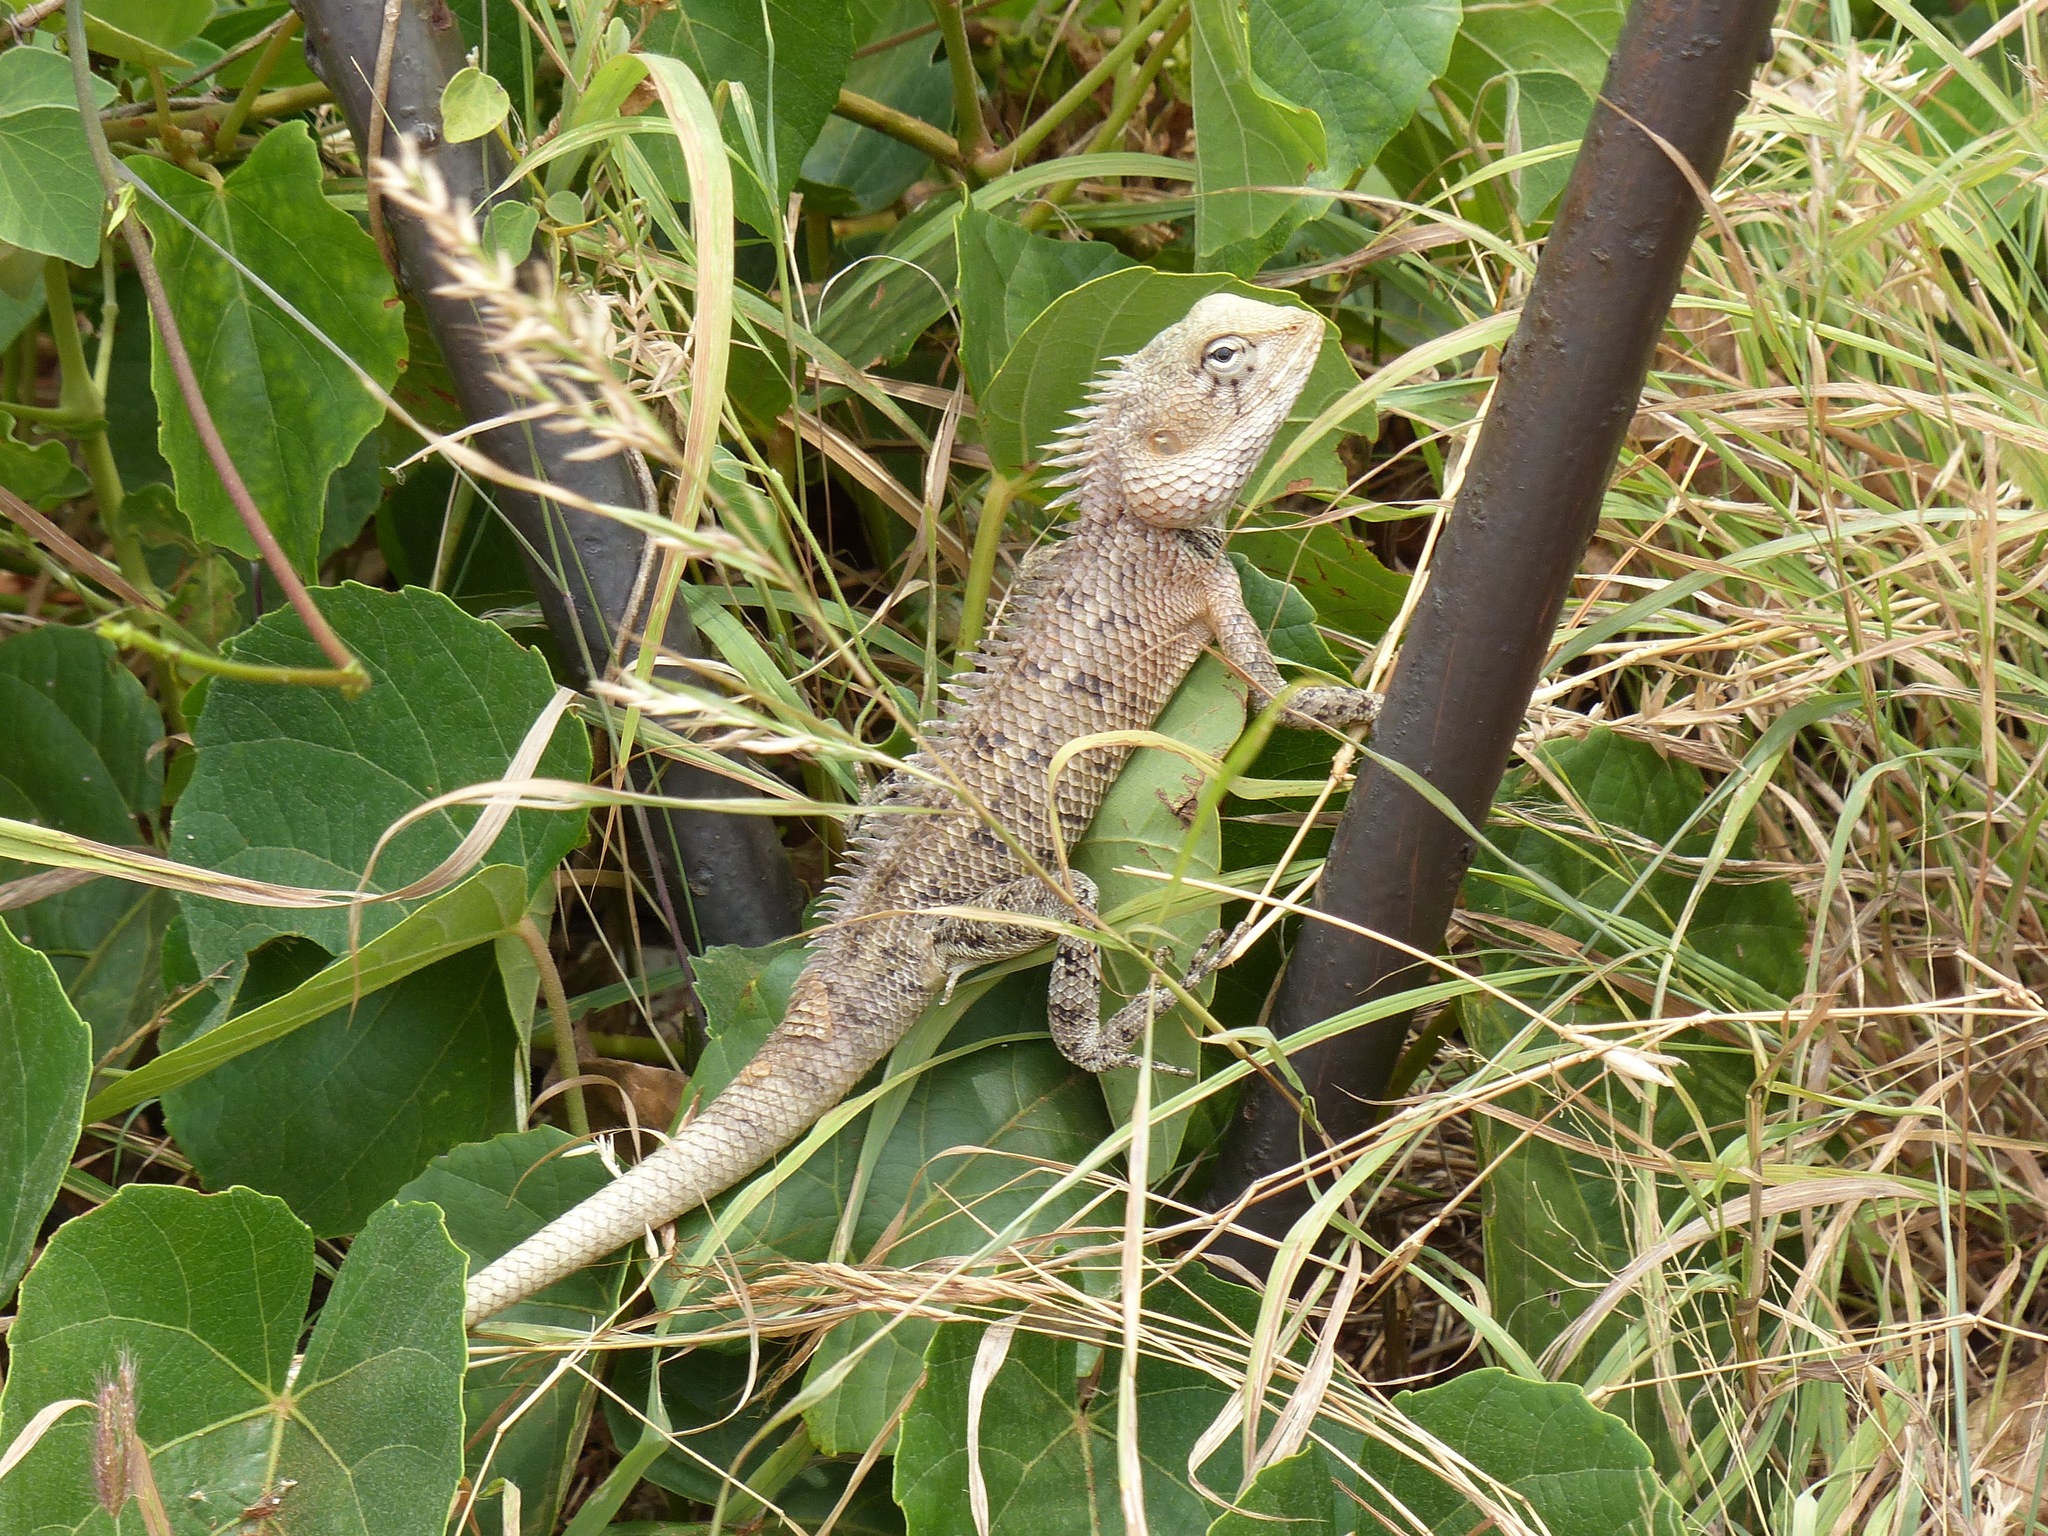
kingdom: Animalia
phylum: Chordata
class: Squamata
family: Agamidae
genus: Calotes
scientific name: Calotes versicolor
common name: Oriental garden lizard
